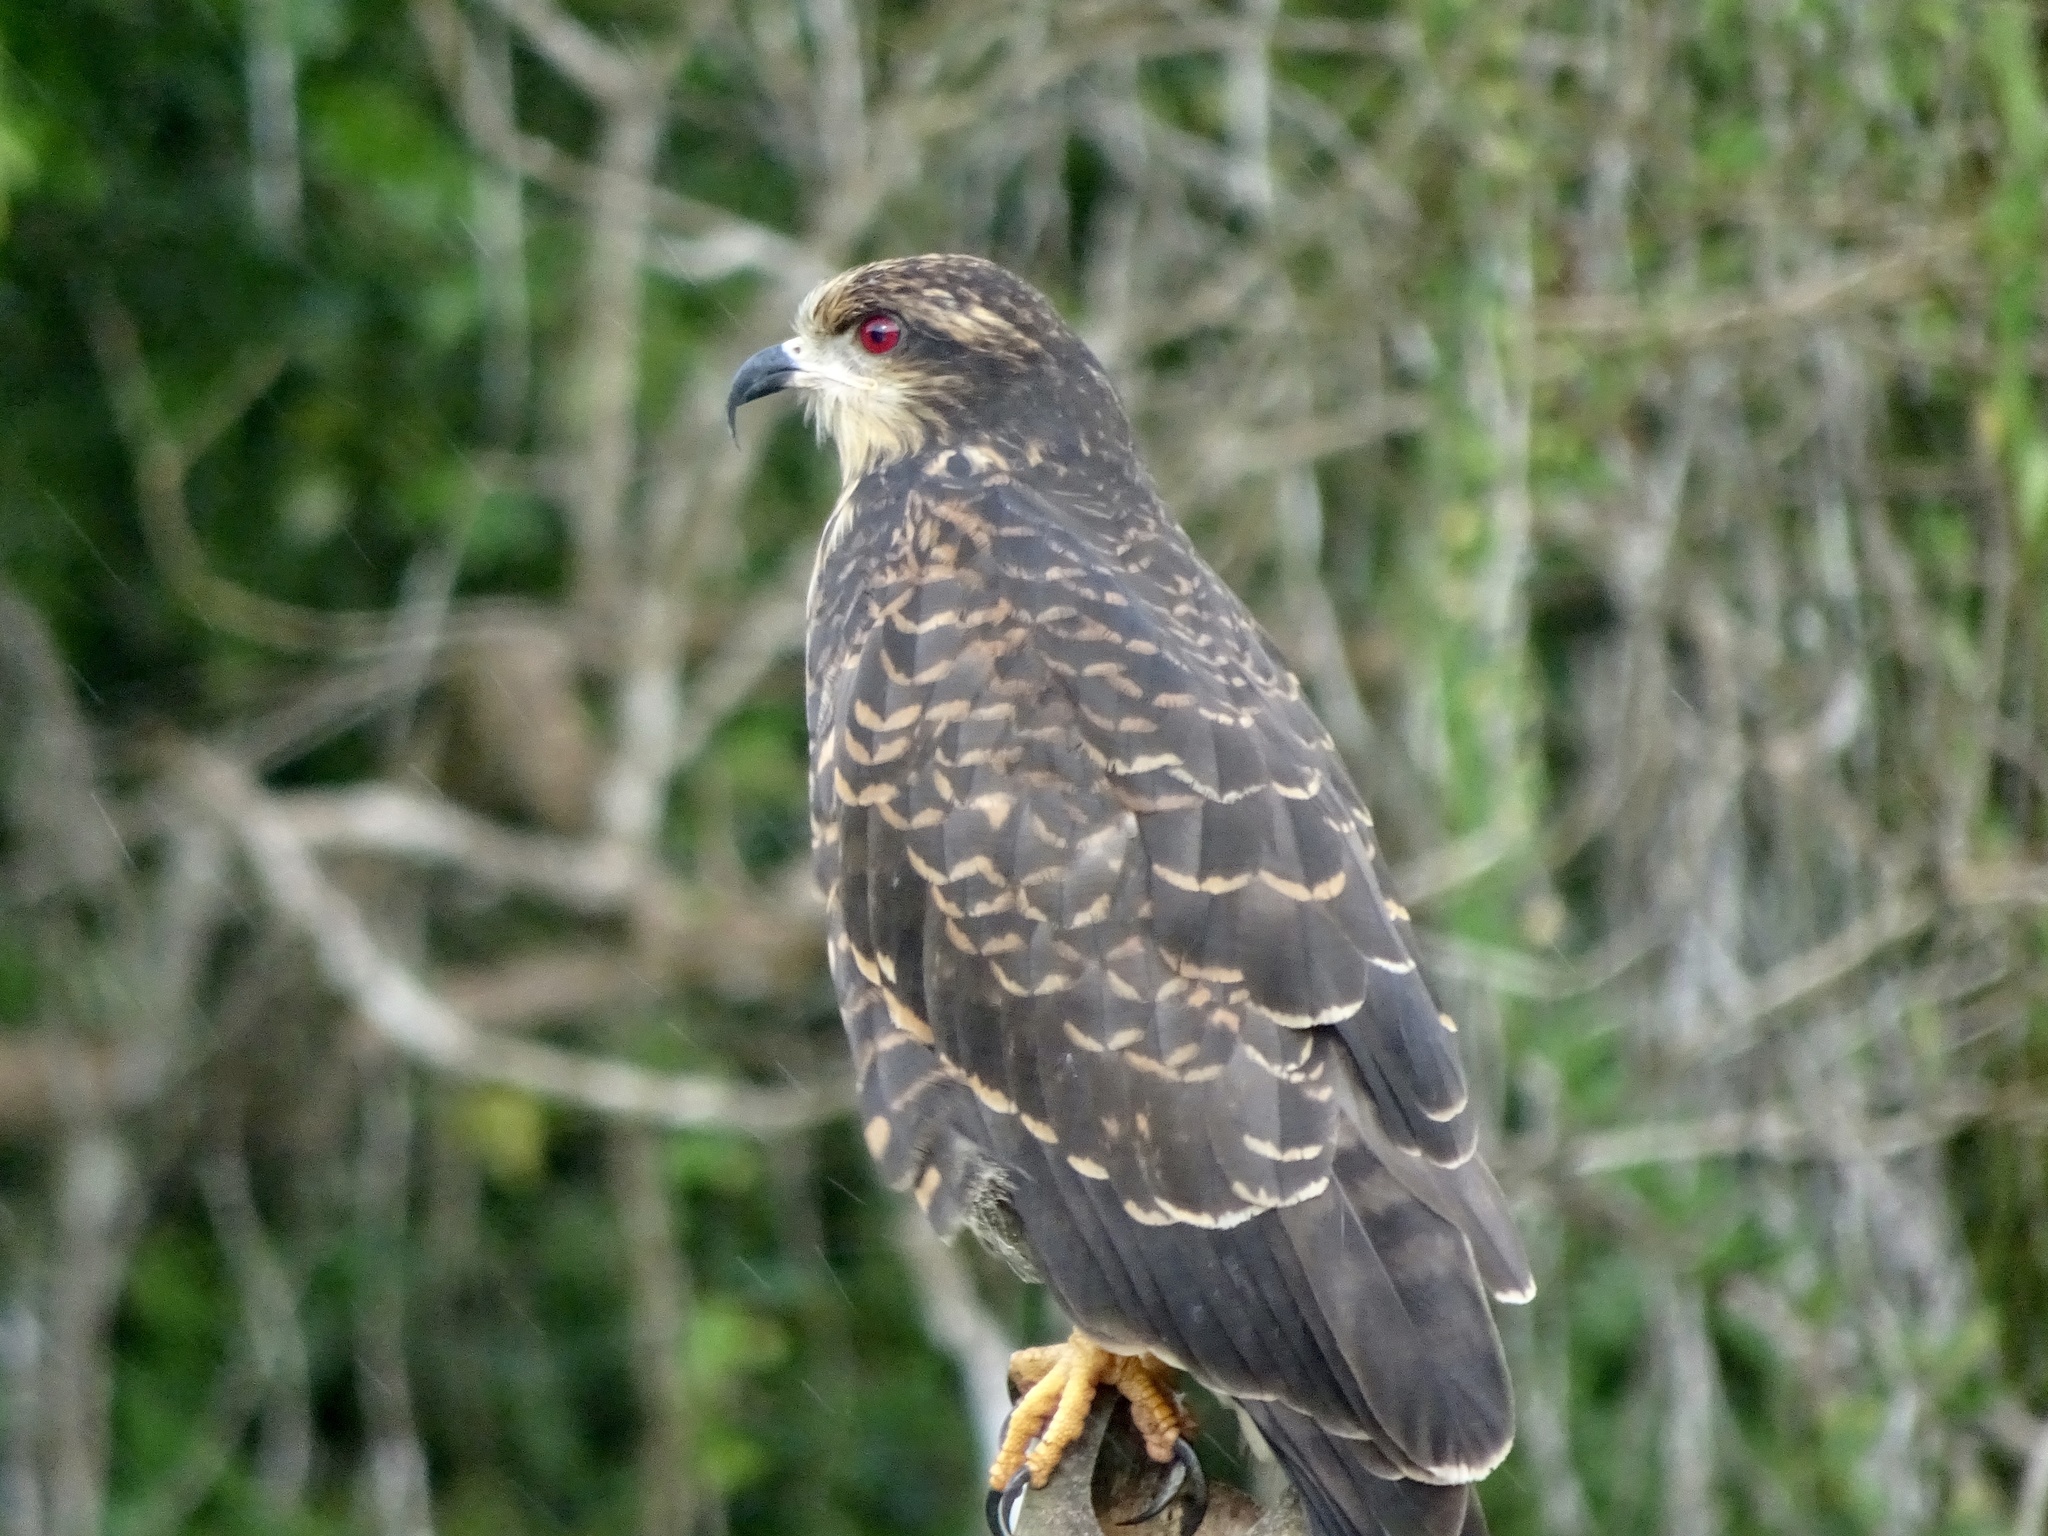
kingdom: Animalia
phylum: Chordata
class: Aves
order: Accipitriformes
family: Accipitridae
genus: Rostrhamus
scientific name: Rostrhamus sociabilis
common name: Snail kite
